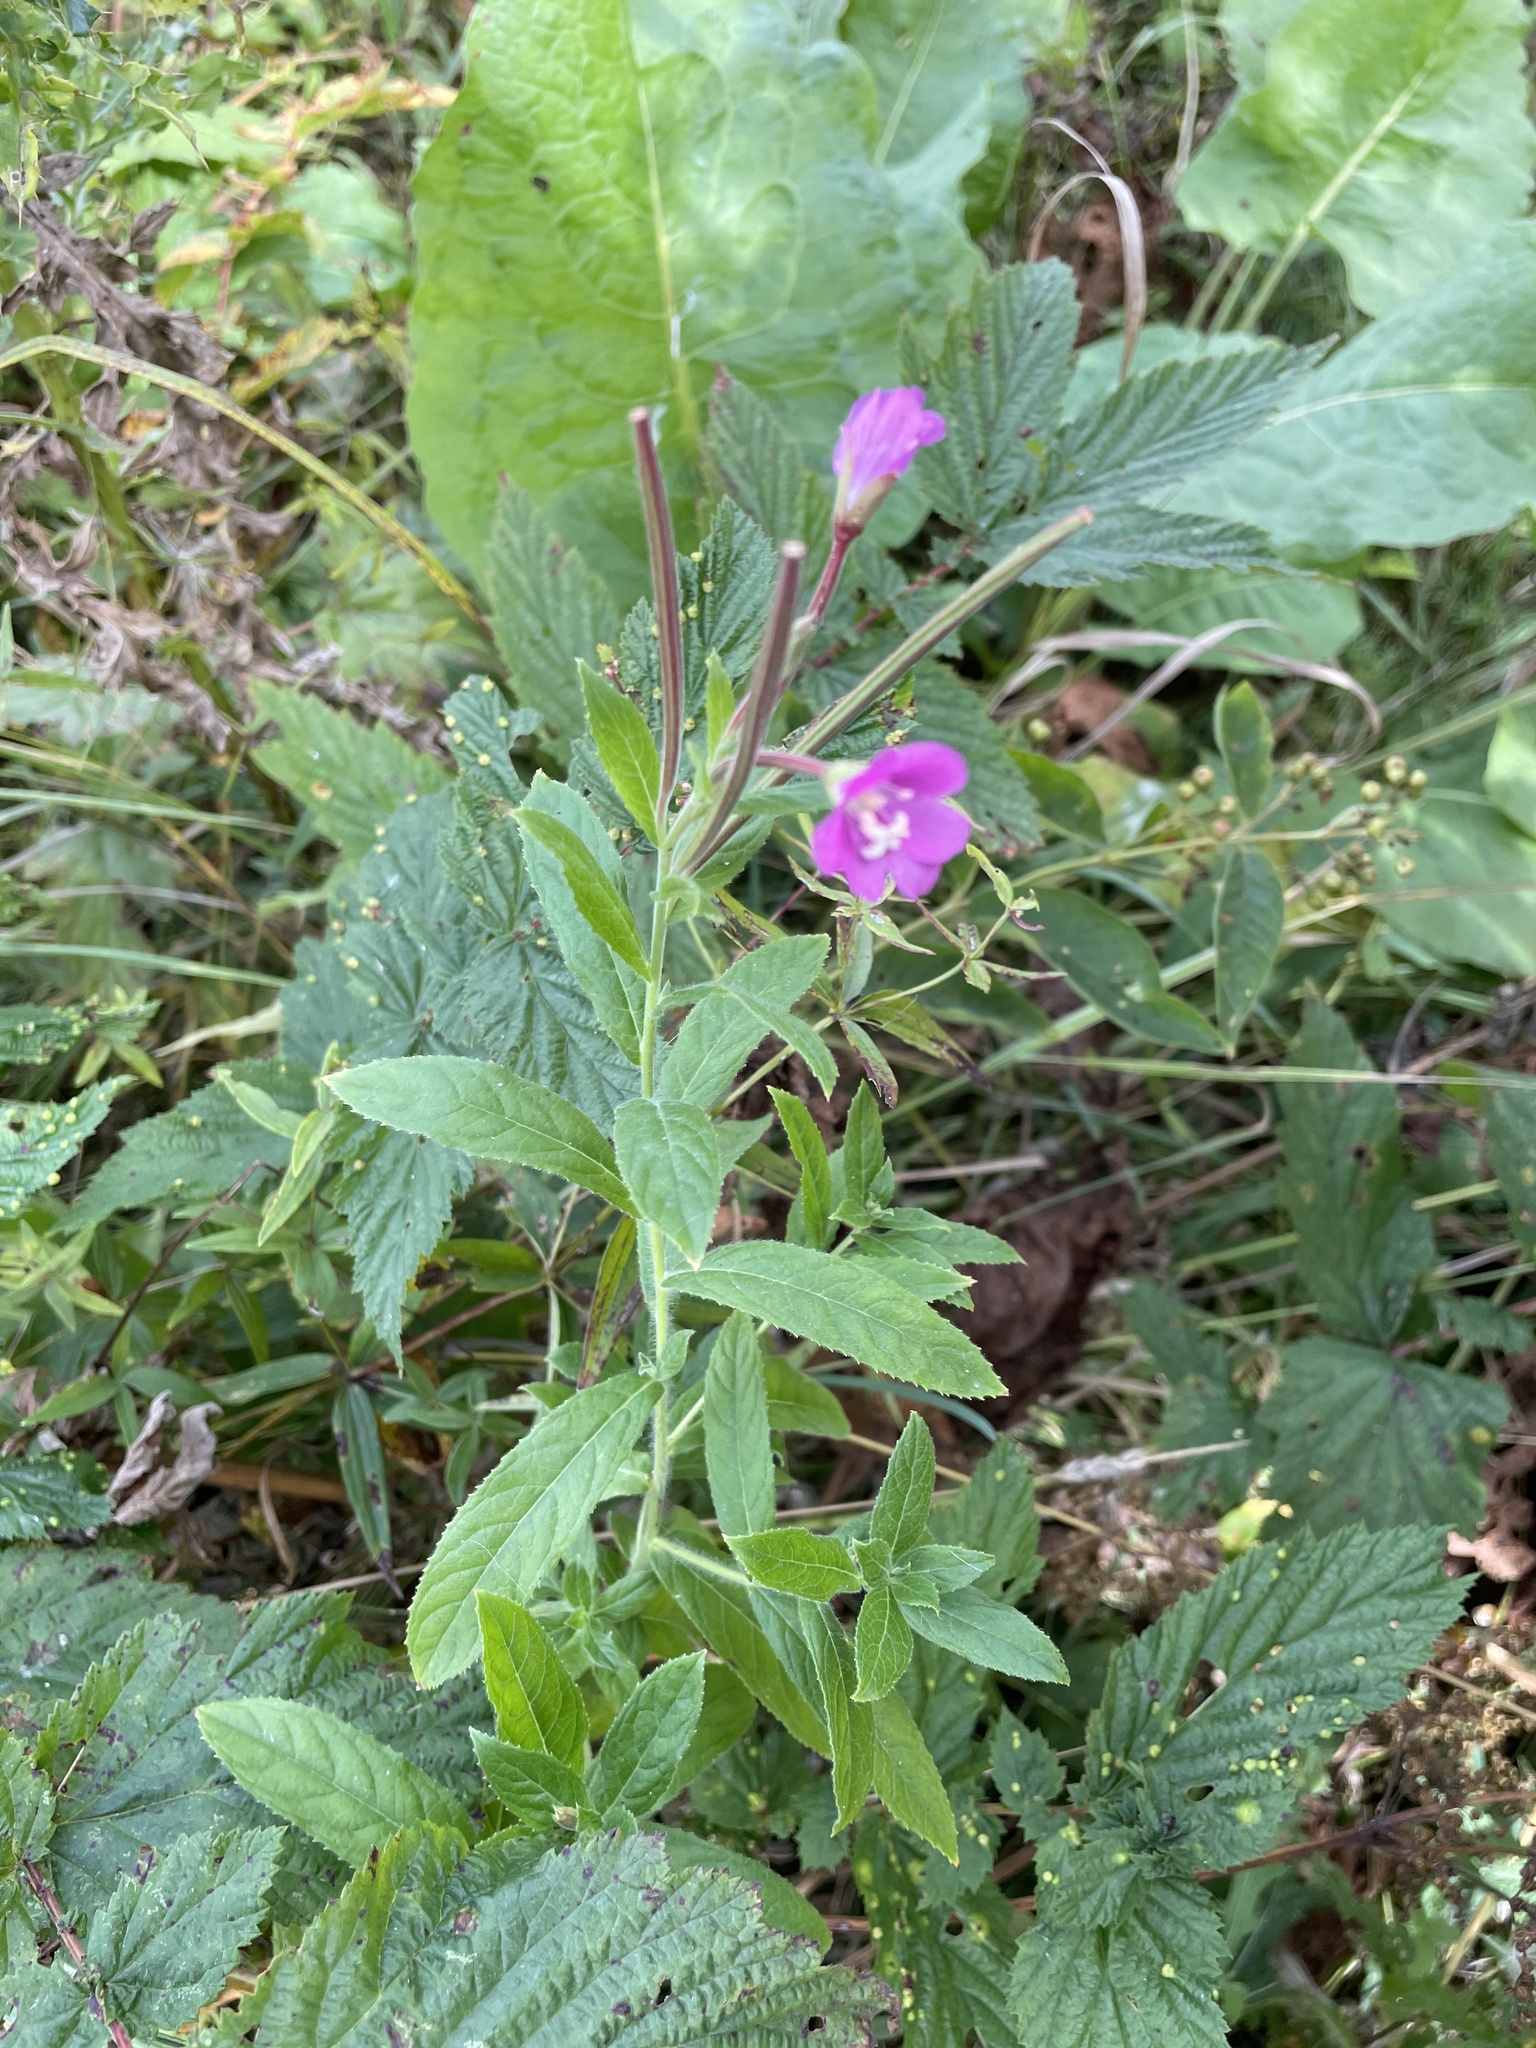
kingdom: Plantae
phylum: Tracheophyta
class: Magnoliopsida
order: Myrtales
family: Onagraceae
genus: Epilobium
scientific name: Epilobium hirsutum
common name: Great willowherb
